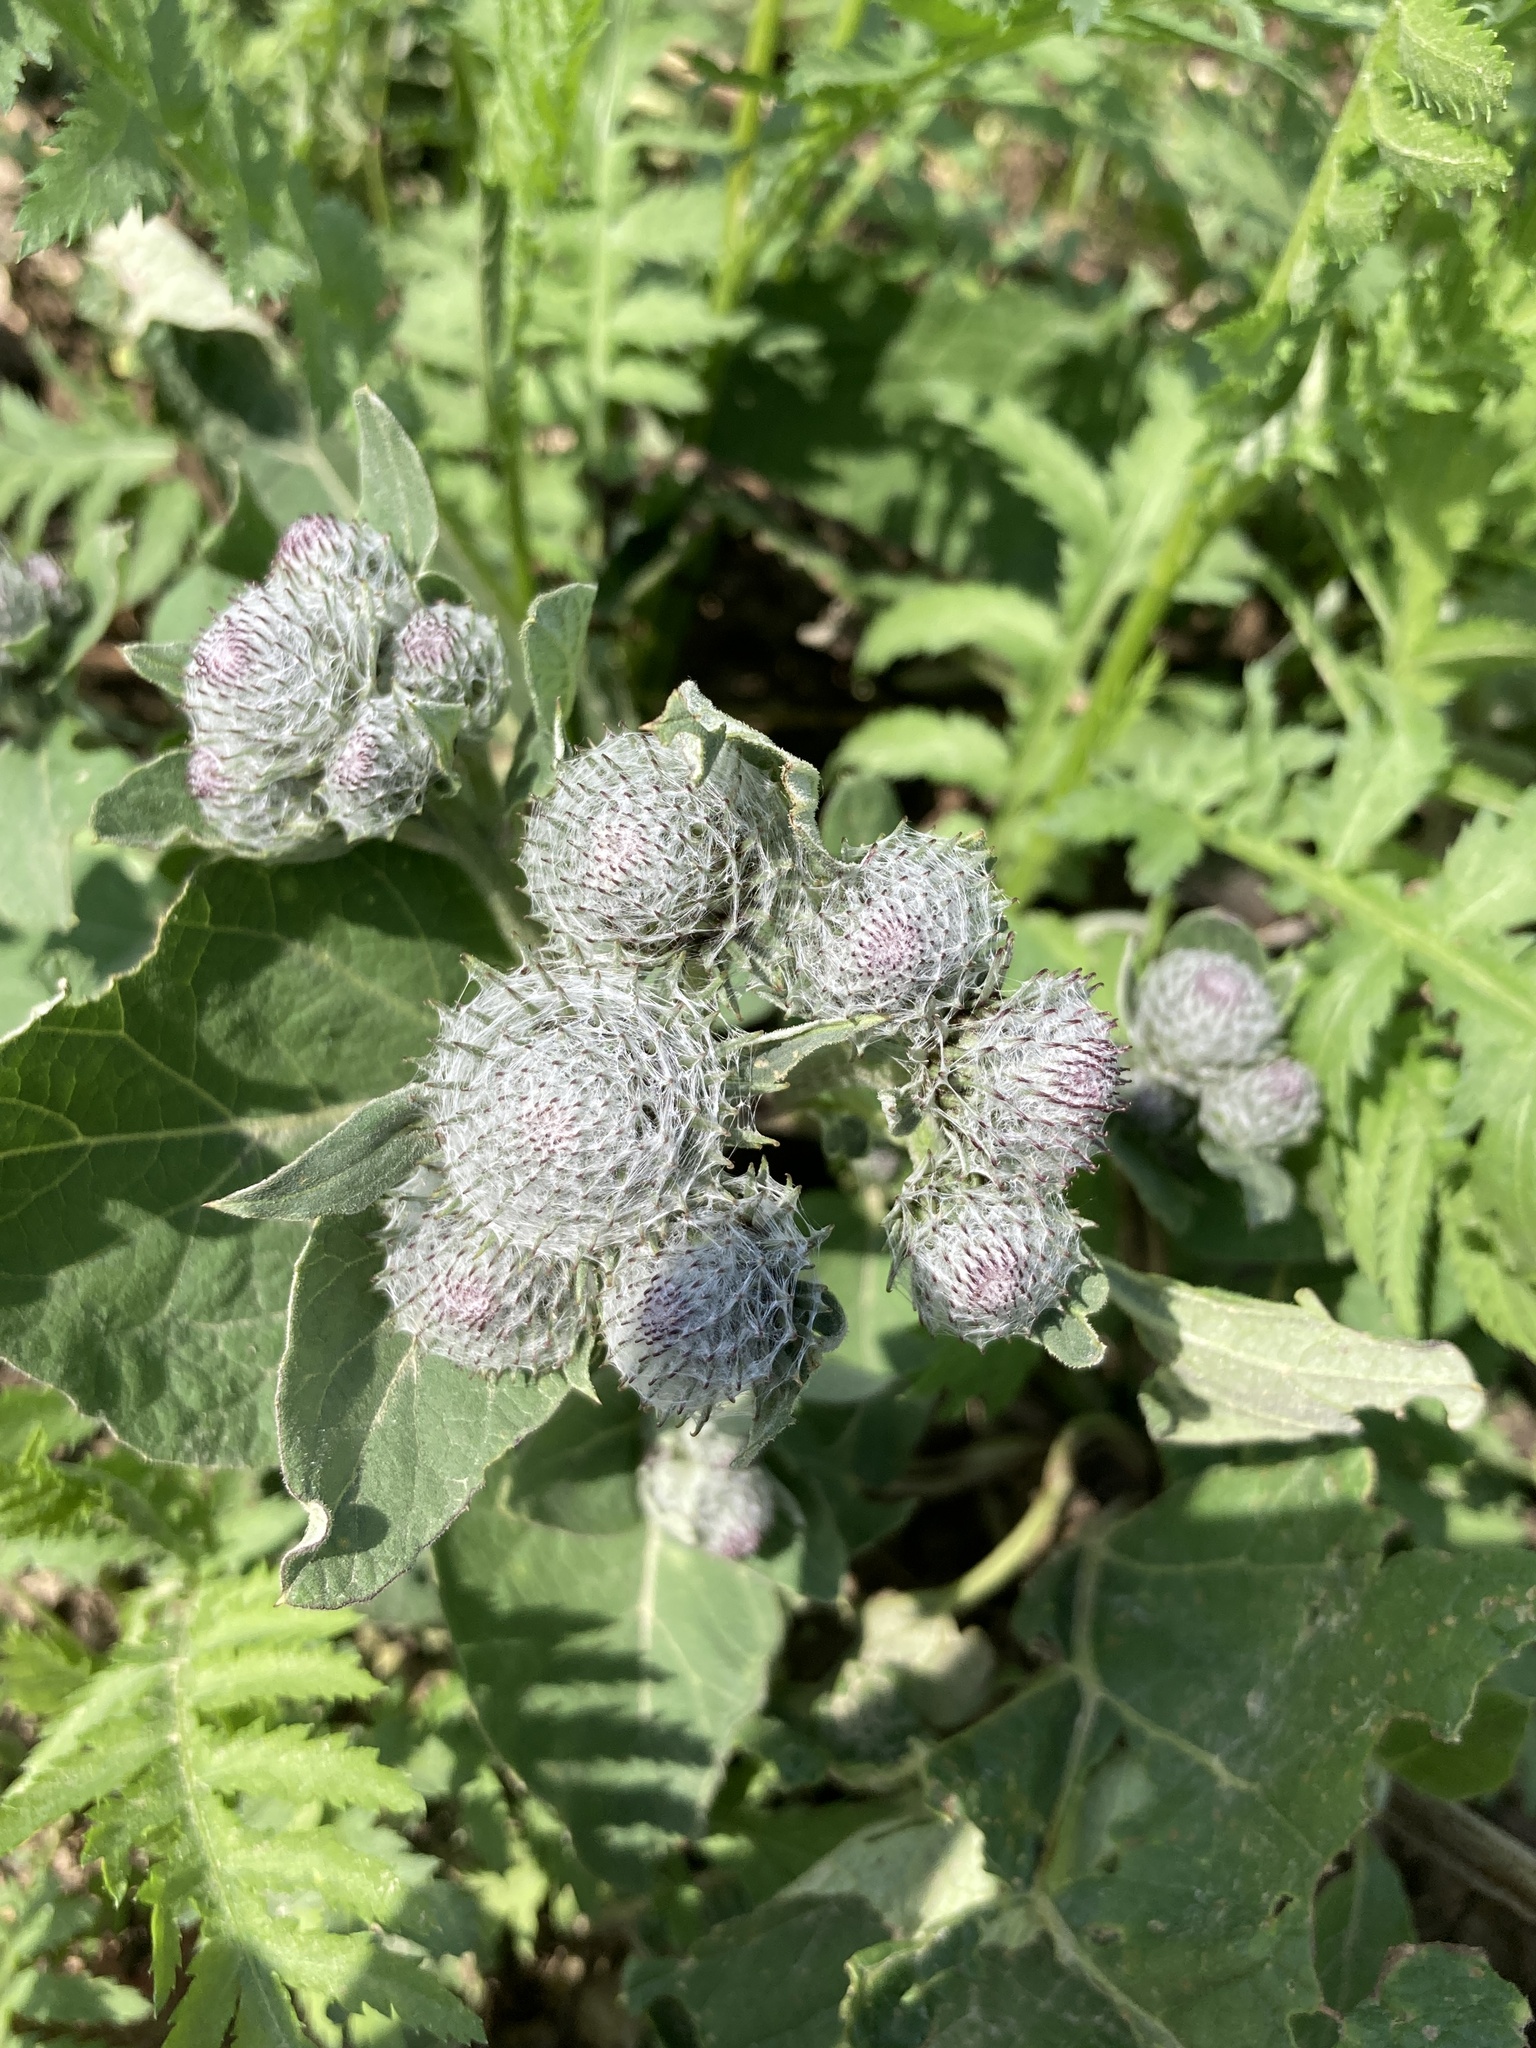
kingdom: Plantae
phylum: Tracheophyta
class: Magnoliopsida
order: Asterales
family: Asteraceae
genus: Arctium
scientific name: Arctium tomentosum
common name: Woolly burdock
